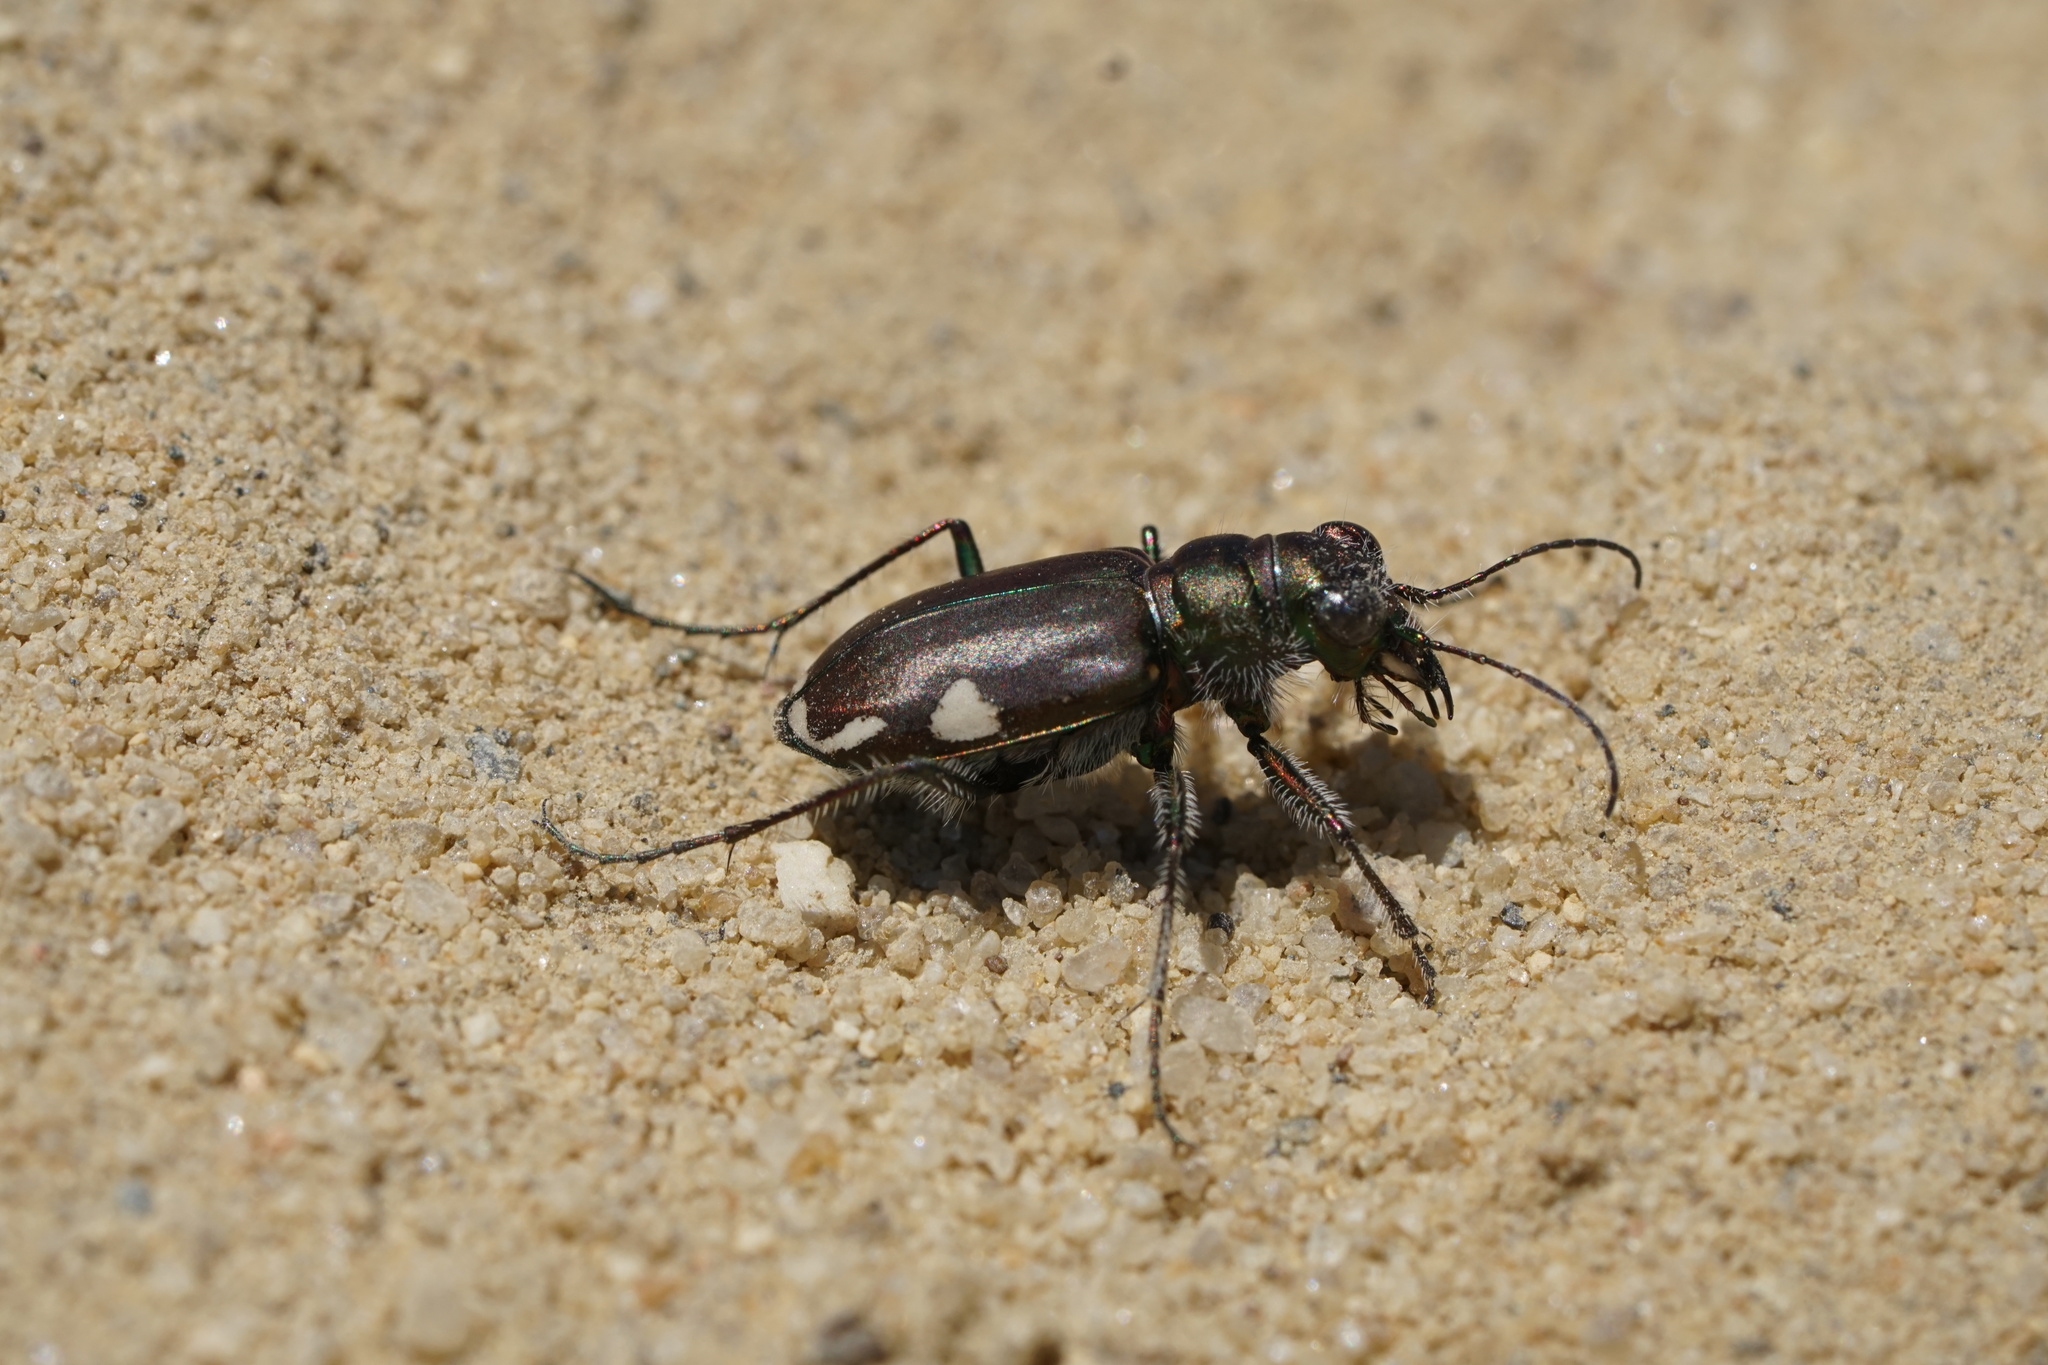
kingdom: Animalia
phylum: Arthropoda
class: Insecta
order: Coleoptera
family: Carabidae
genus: Cicindela
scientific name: Cicindela scutellaris
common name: Festive tiger beetle
